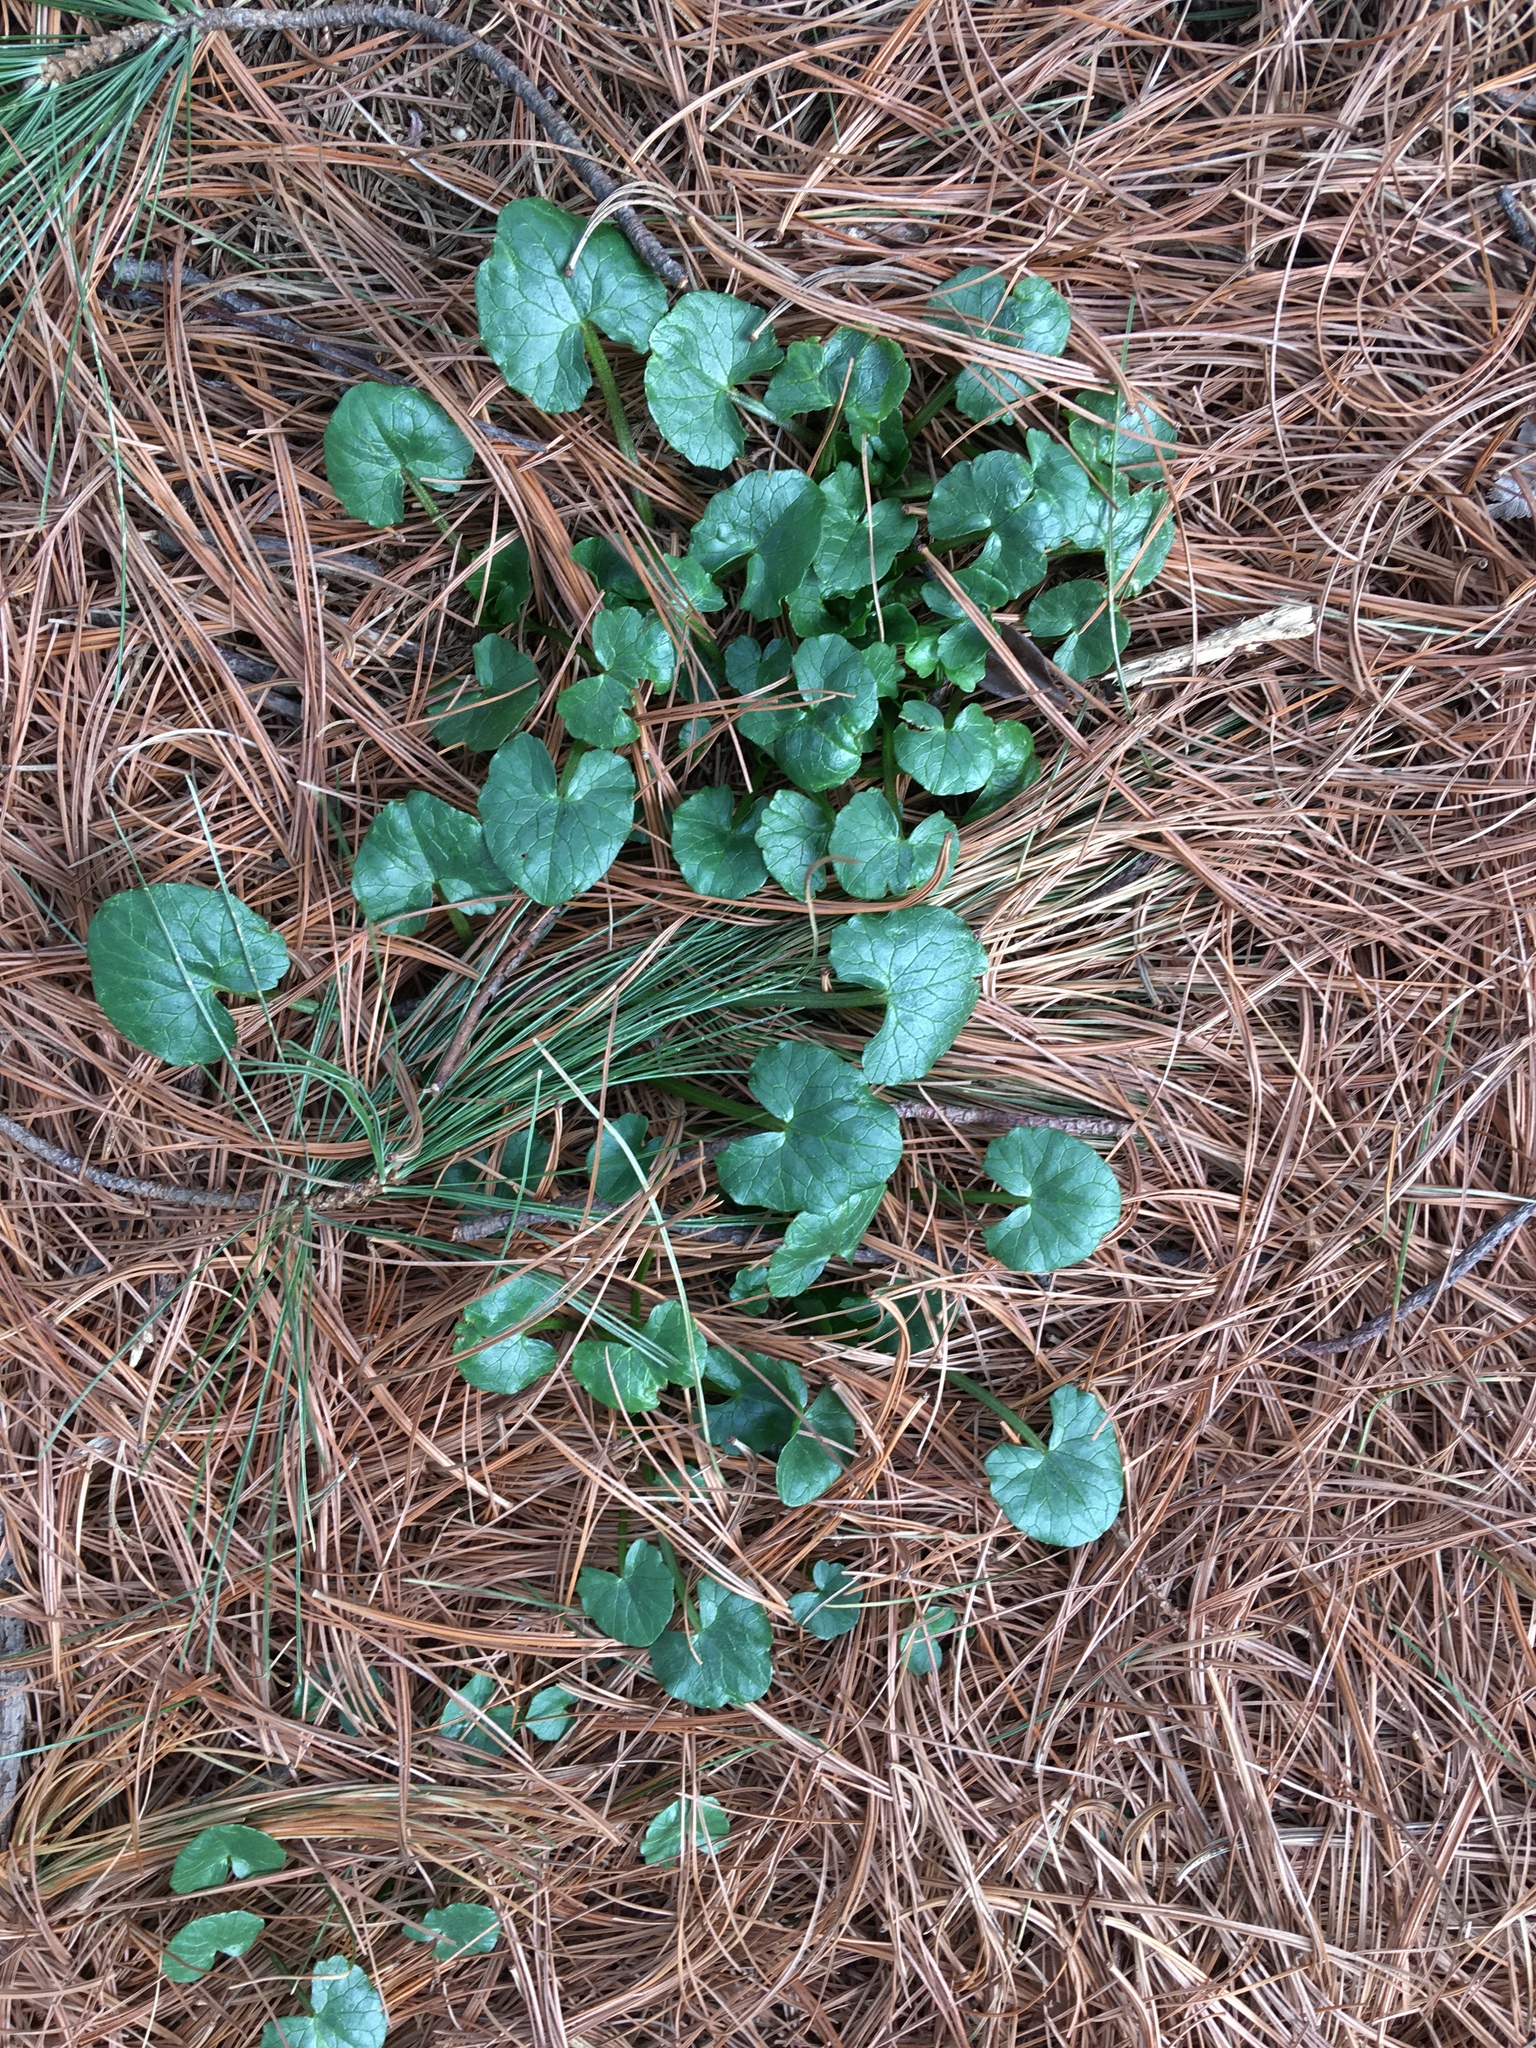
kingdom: Plantae
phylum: Tracheophyta
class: Magnoliopsida
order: Ranunculales
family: Ranunculaceae
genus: Ficaria
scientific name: Ficaria verna
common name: Lesser celandine
